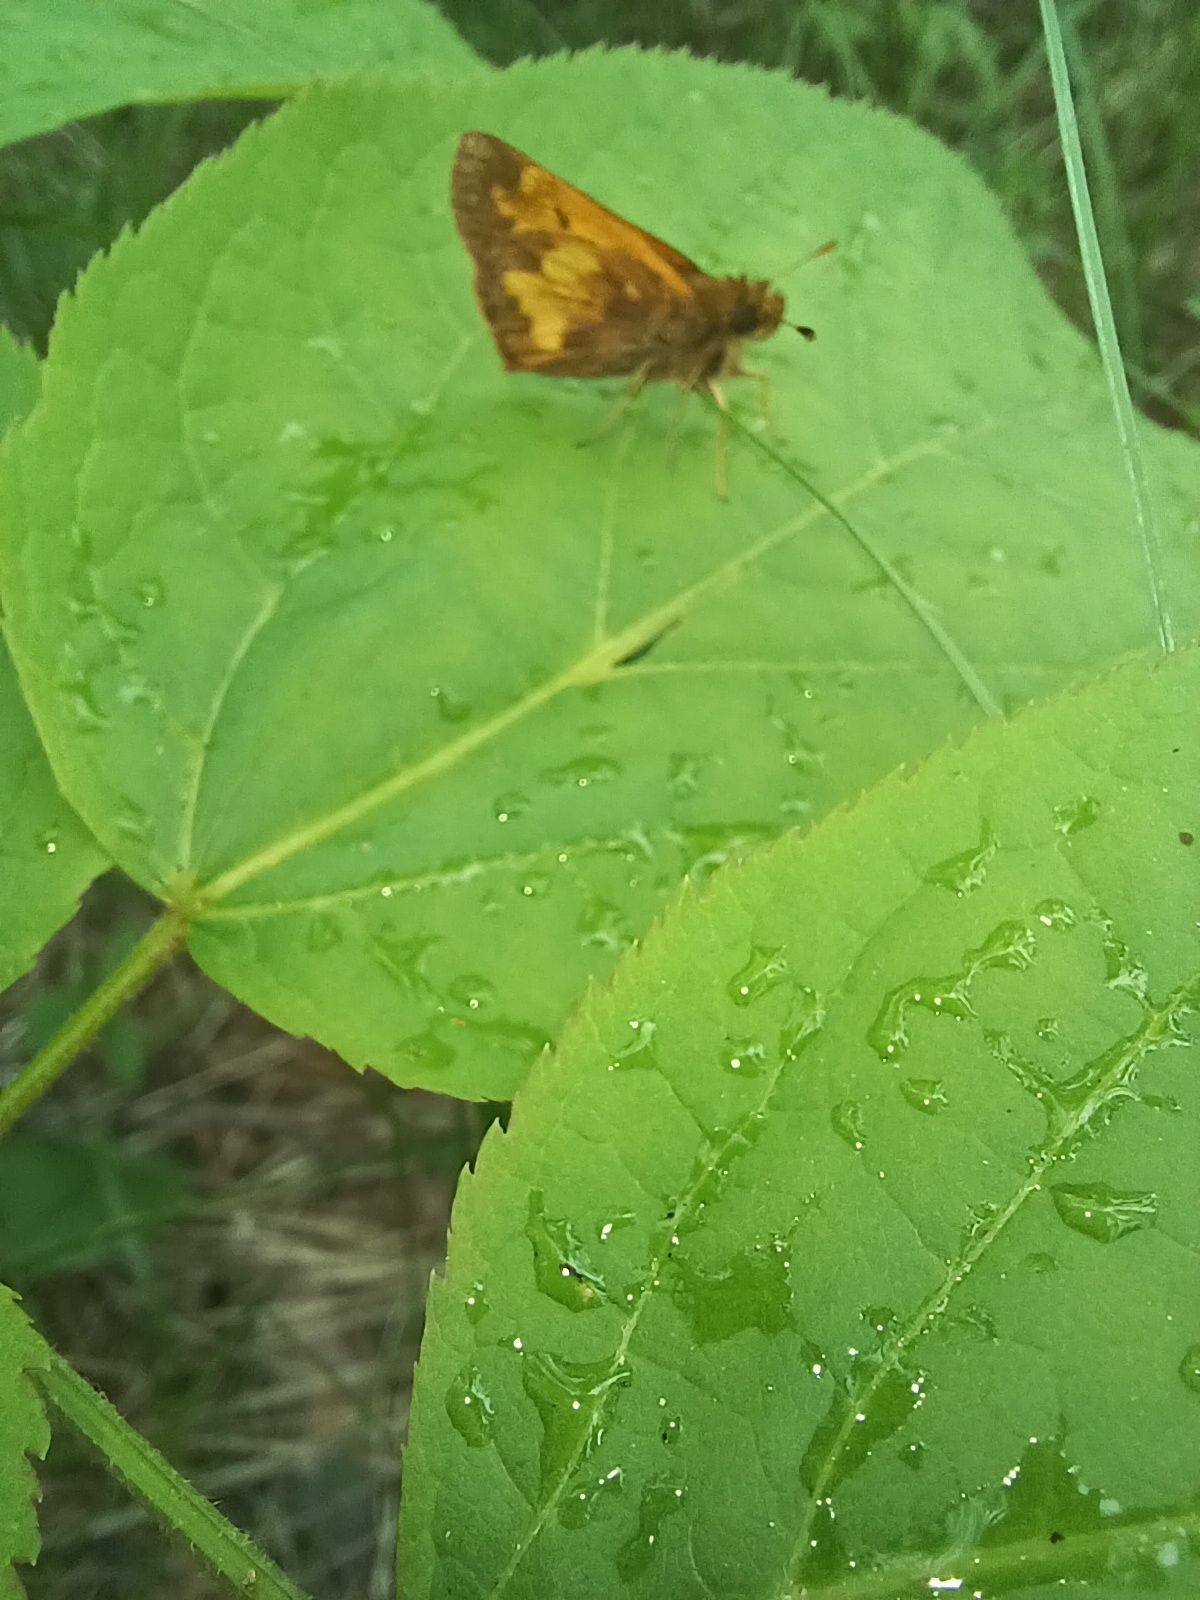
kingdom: Animalia
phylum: Arthropoda
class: Insecta
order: Lepidoptera
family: Hesperiidae
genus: Lon
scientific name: Lon hobomok
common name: Hobomok skipper
